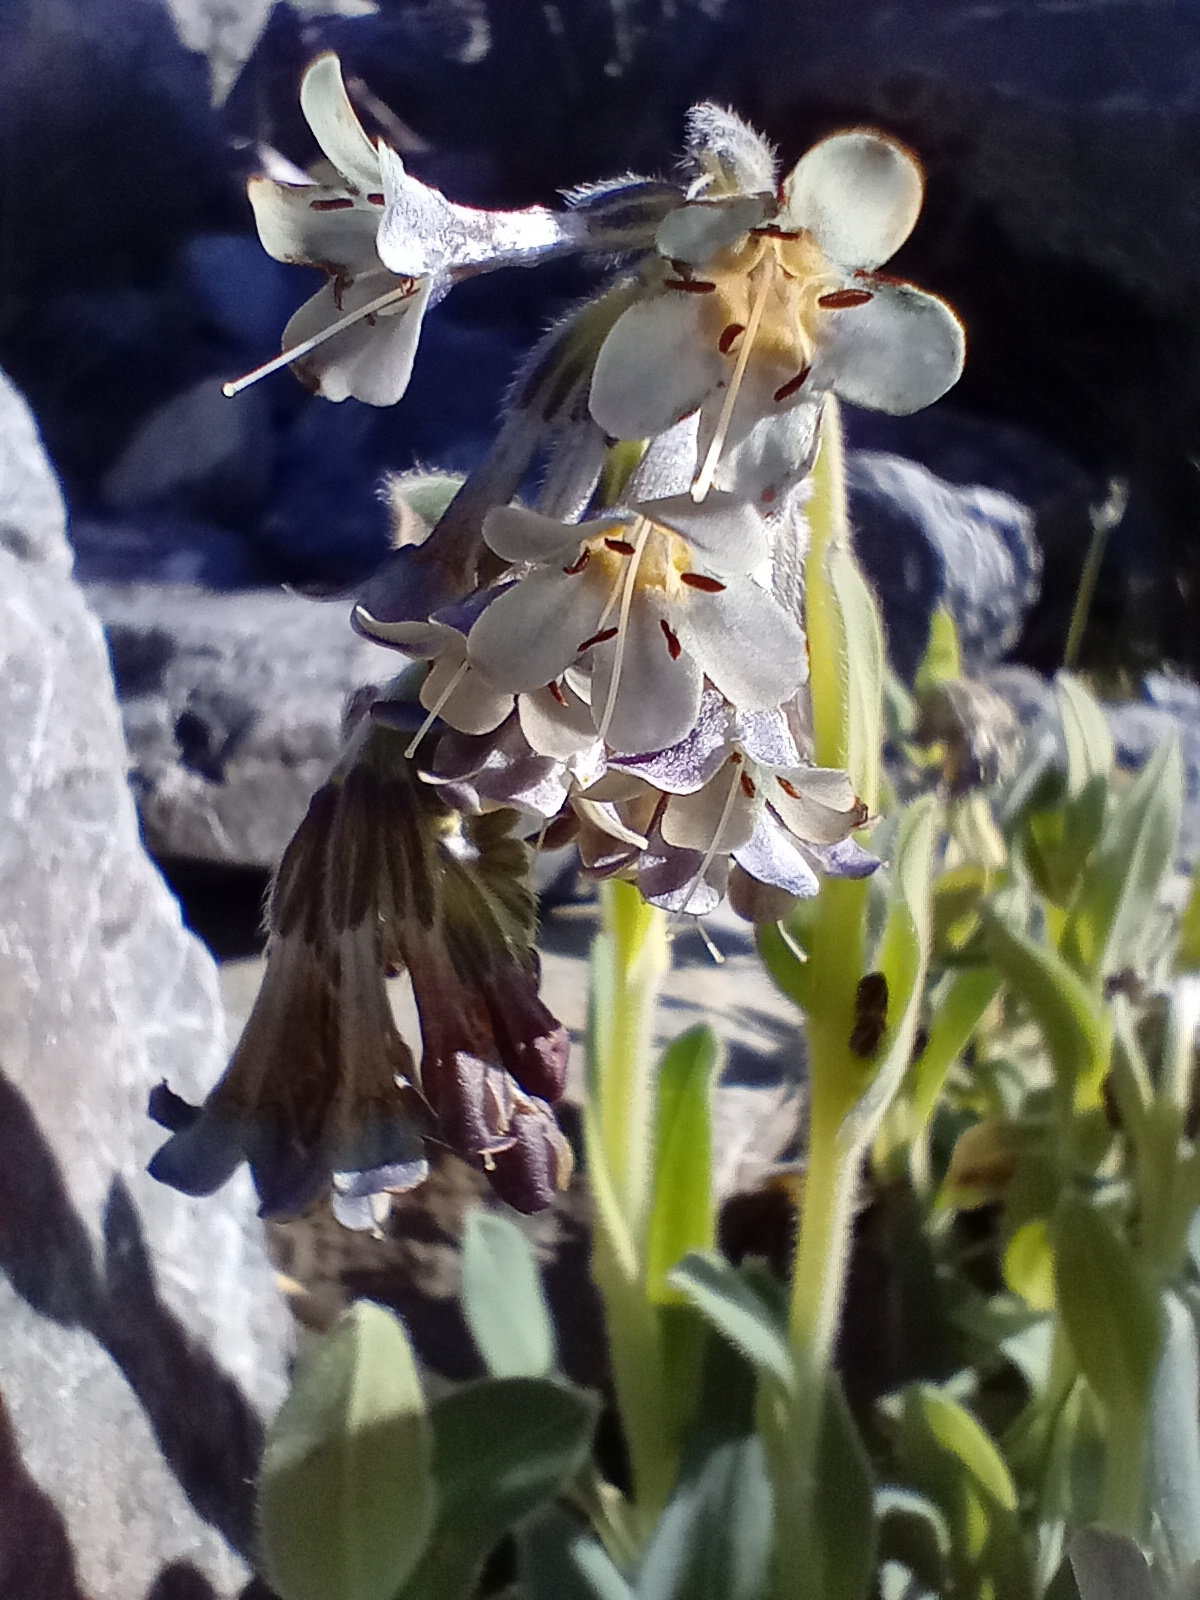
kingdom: Plantae
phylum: Tracheophyta
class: Magnoliopsida
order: Boraginales
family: Boraginaceae
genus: Myosotis
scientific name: Myosotis macrantha
